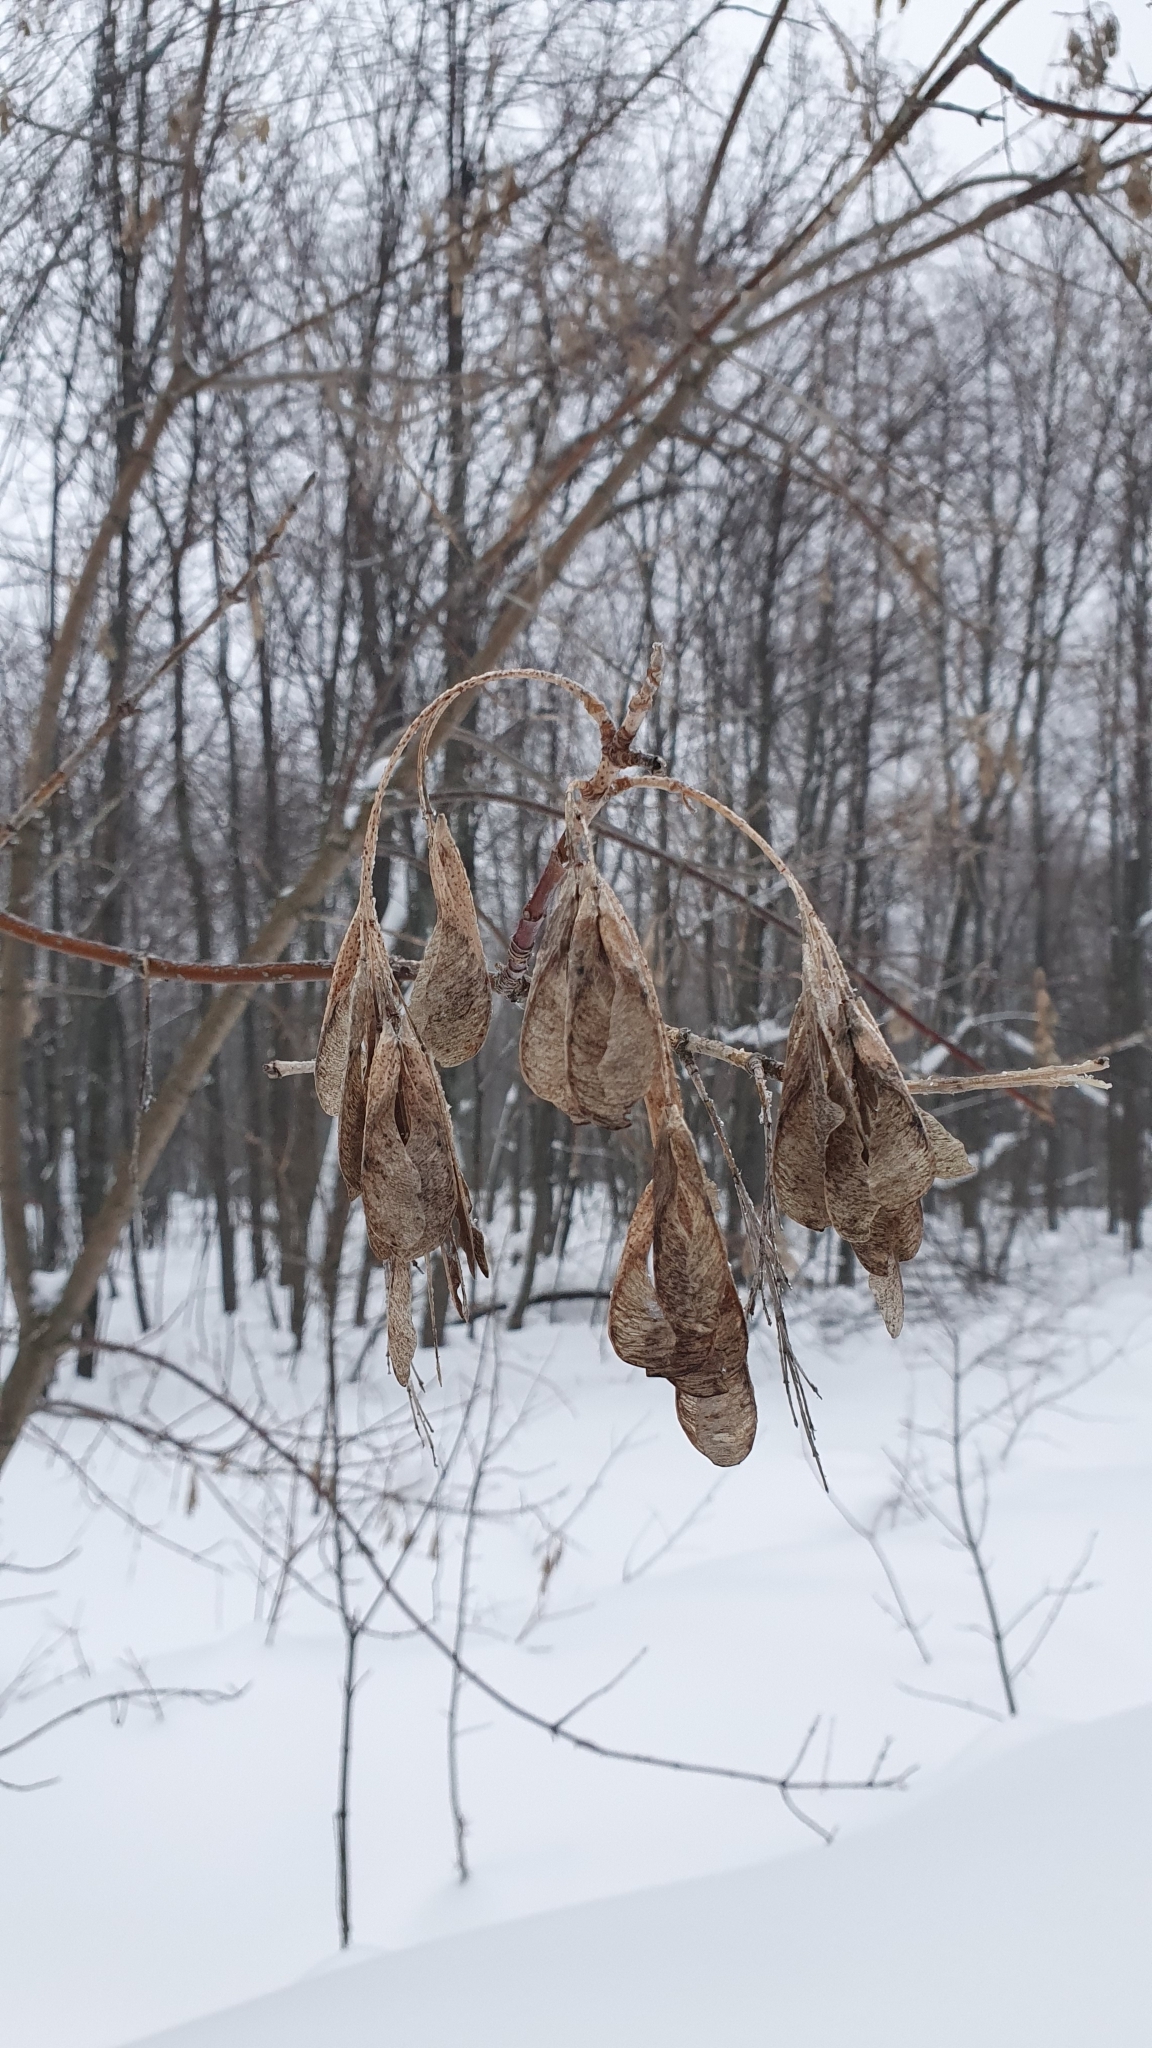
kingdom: Plantae
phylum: Tracheophyta
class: Magnoliopsida
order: Sapindales
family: Sapindaceae
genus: Acer
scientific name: Acer negundo
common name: Ashleaf maple
